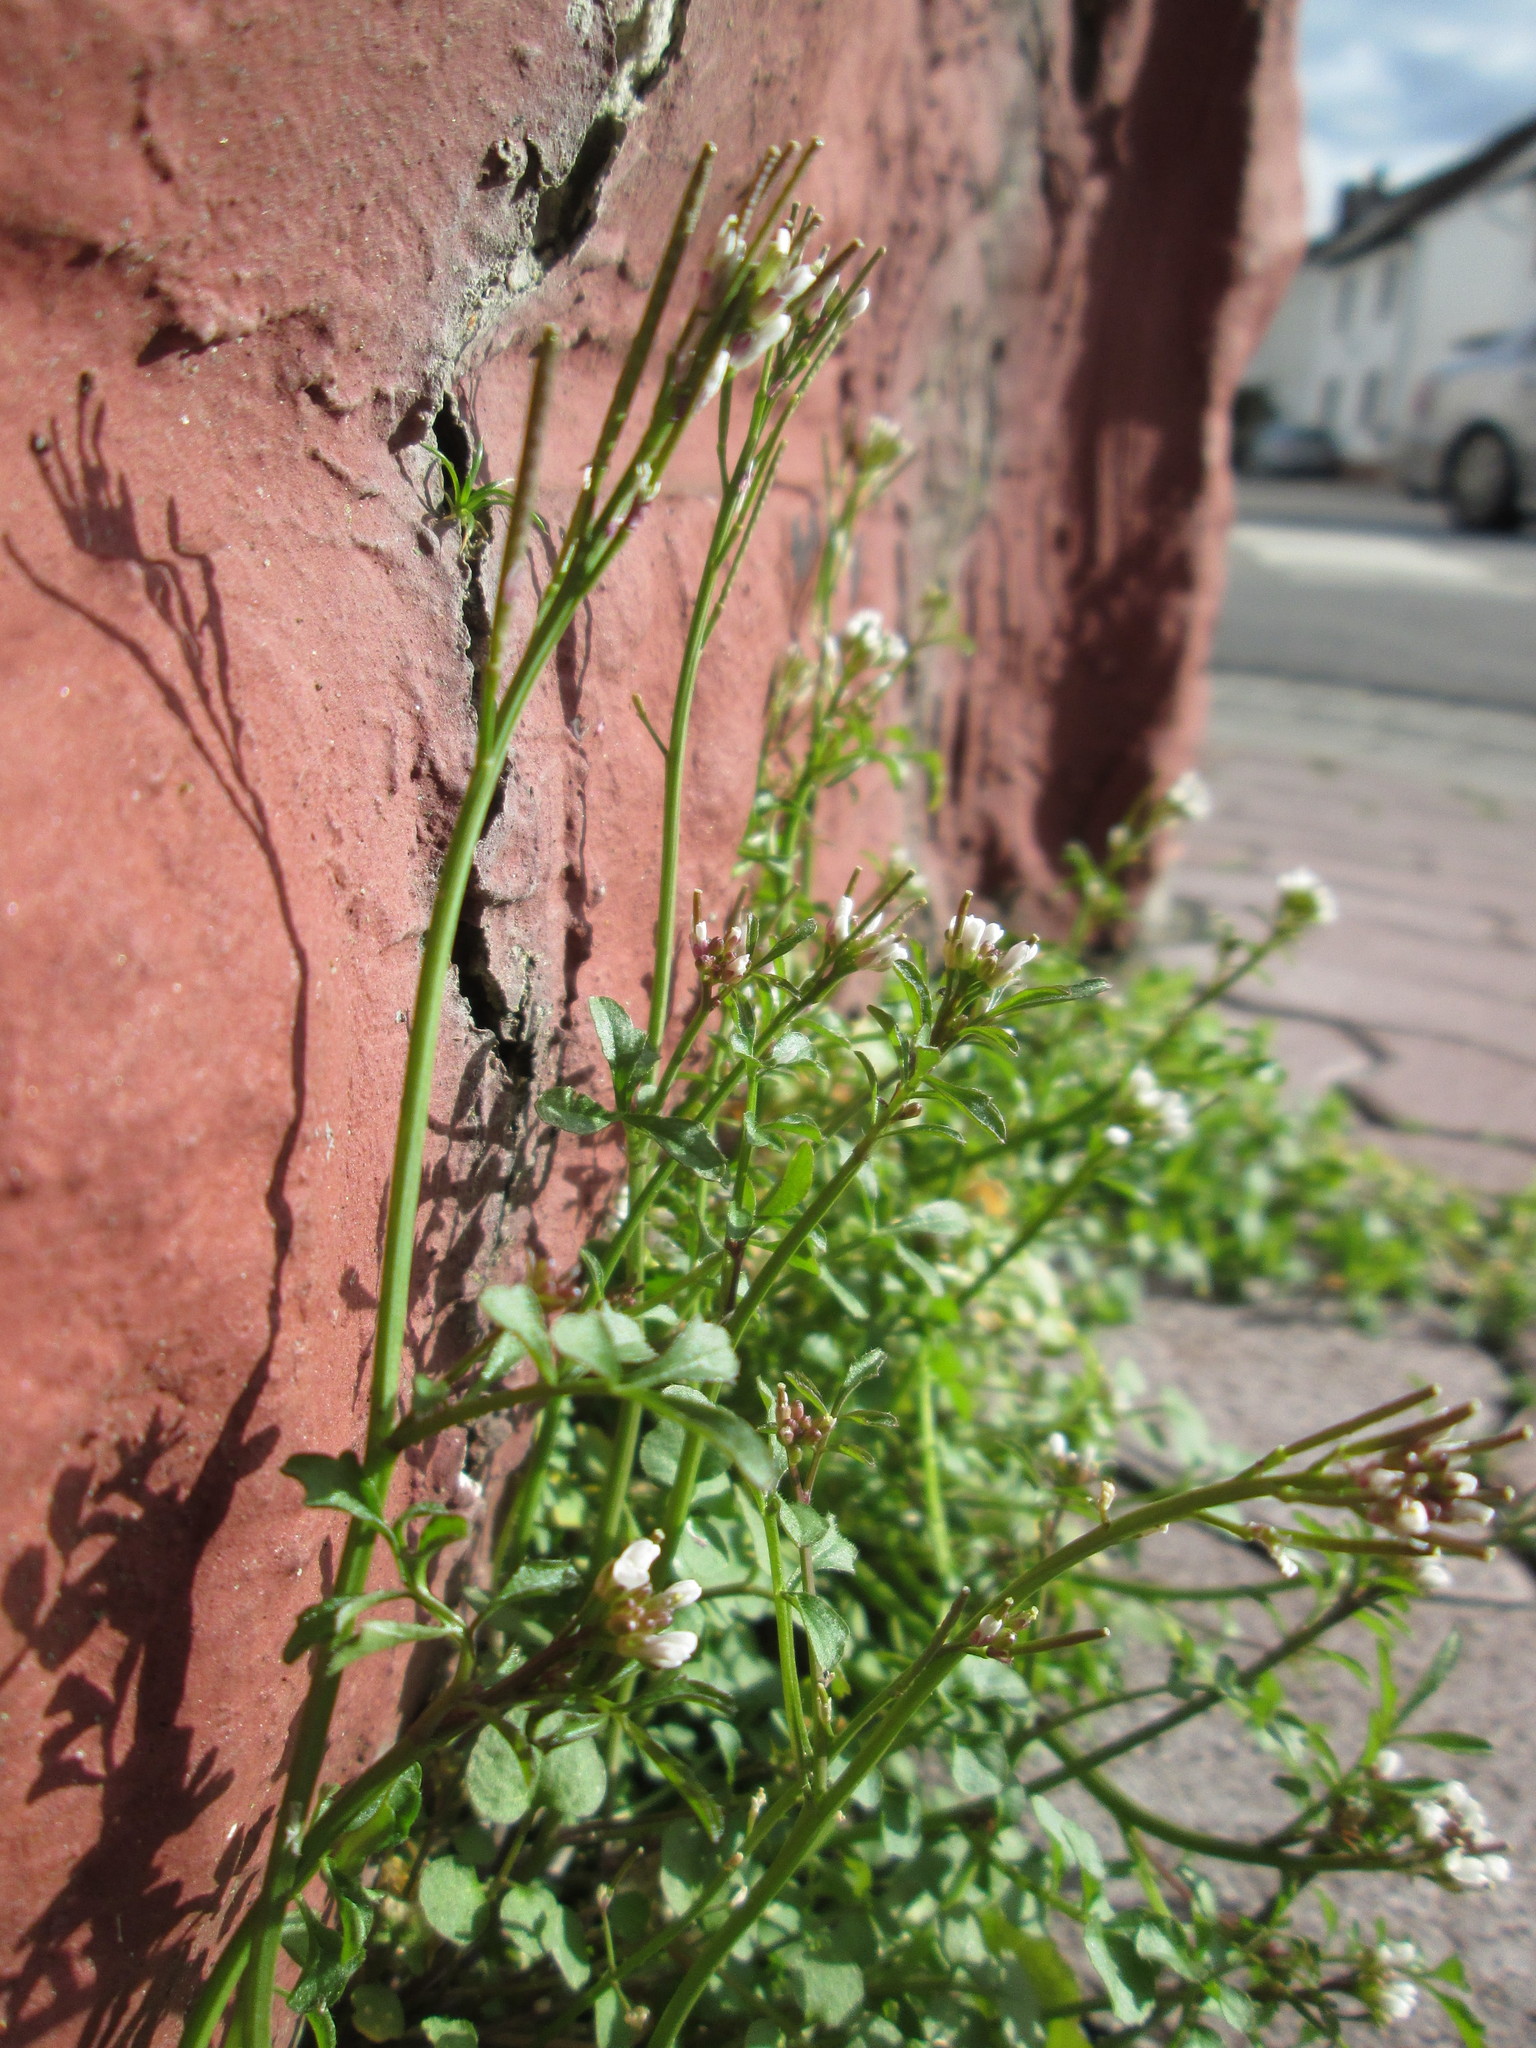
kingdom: Plantae
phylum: Tracheophyta
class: Magnoliopsida
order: Brassicales
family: Brassicaceae
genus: Cardamine
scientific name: Cardamine hirsuta
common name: Hairy bittercress
